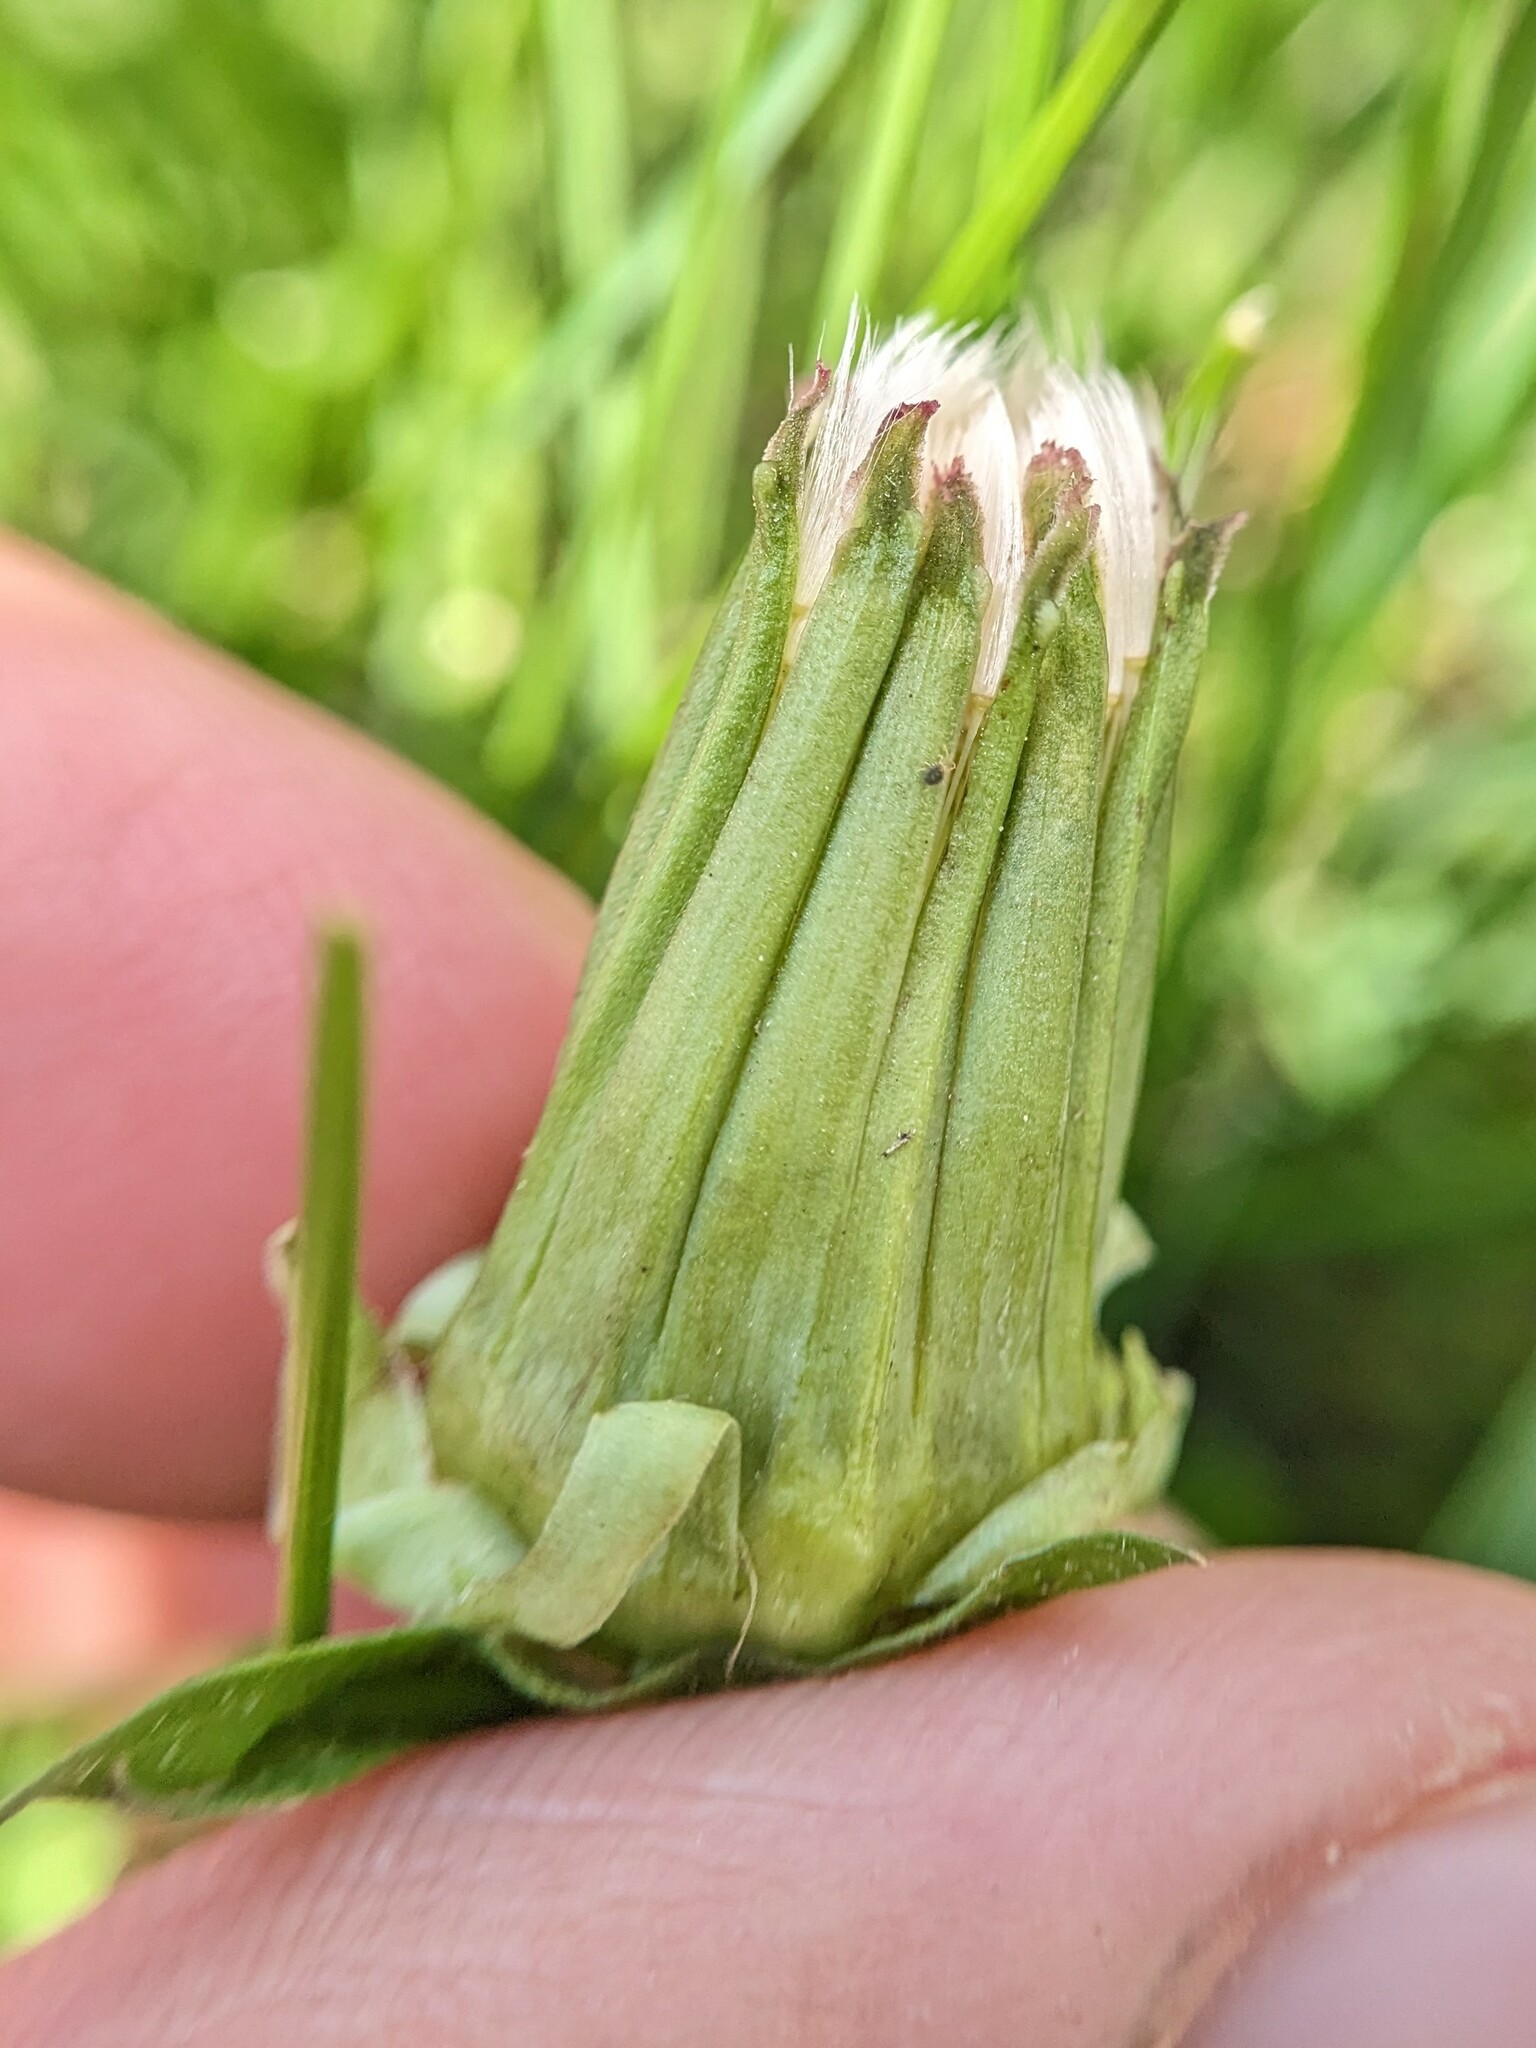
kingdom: Plantae
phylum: Tracheophyta
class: Magnoliopsida
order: Asterales
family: Asteraceae
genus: Taraxacum
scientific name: Taraxacum erythrospermum
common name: Rock dandelion
